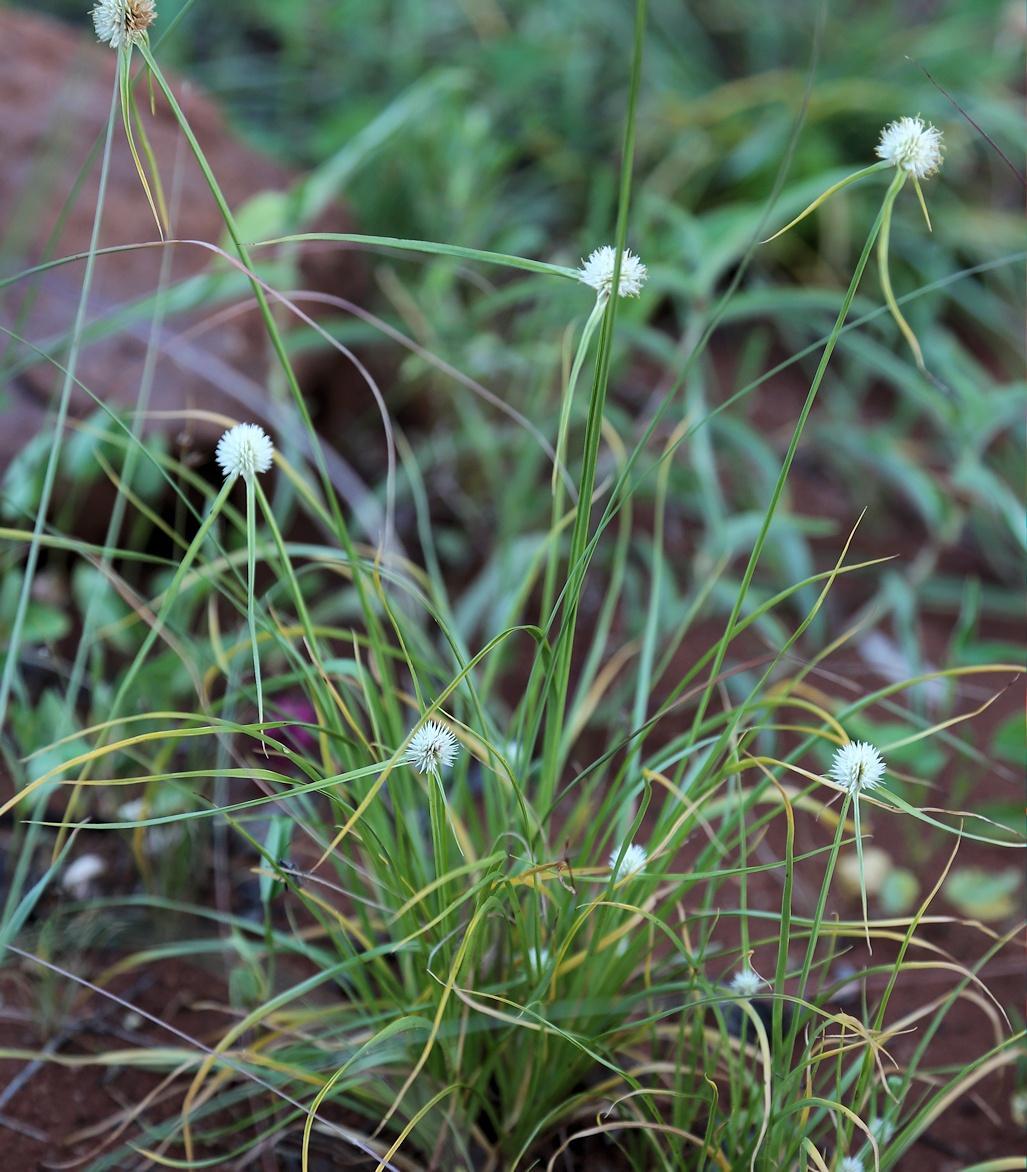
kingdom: Plantae
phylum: Tracheophyta
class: Liliopsida
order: Poales
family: Cyperaceae
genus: Cyperus
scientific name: Cyperus alatus
